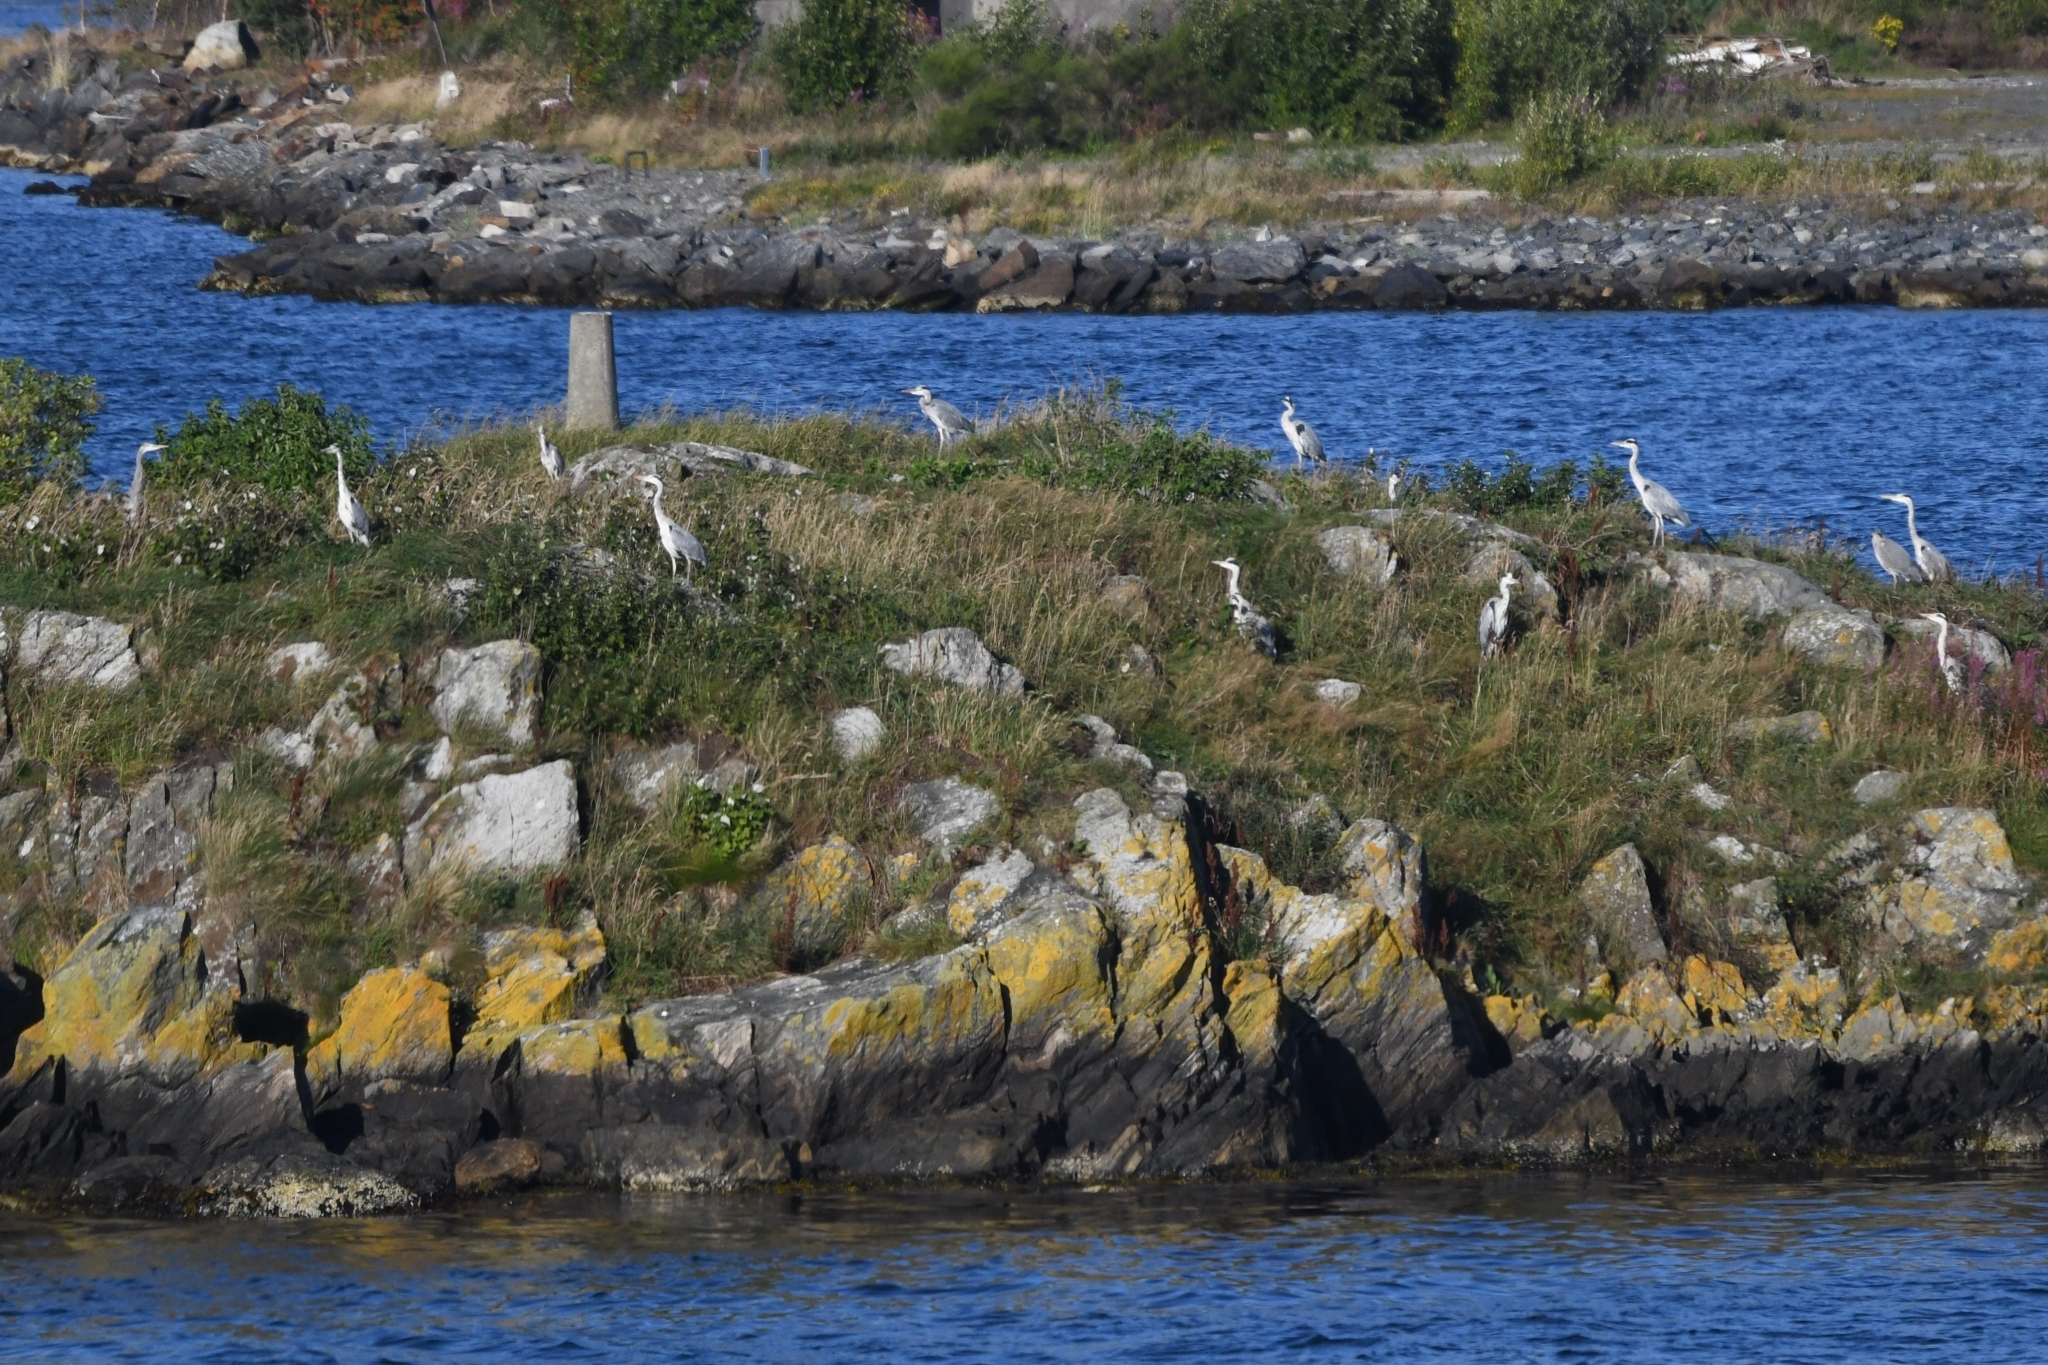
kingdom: Animalia
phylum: Chordata
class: Aves
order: Pelecaniformes
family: Ardeidae
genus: Ardea
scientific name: Ardea cinerea
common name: Grey heron
